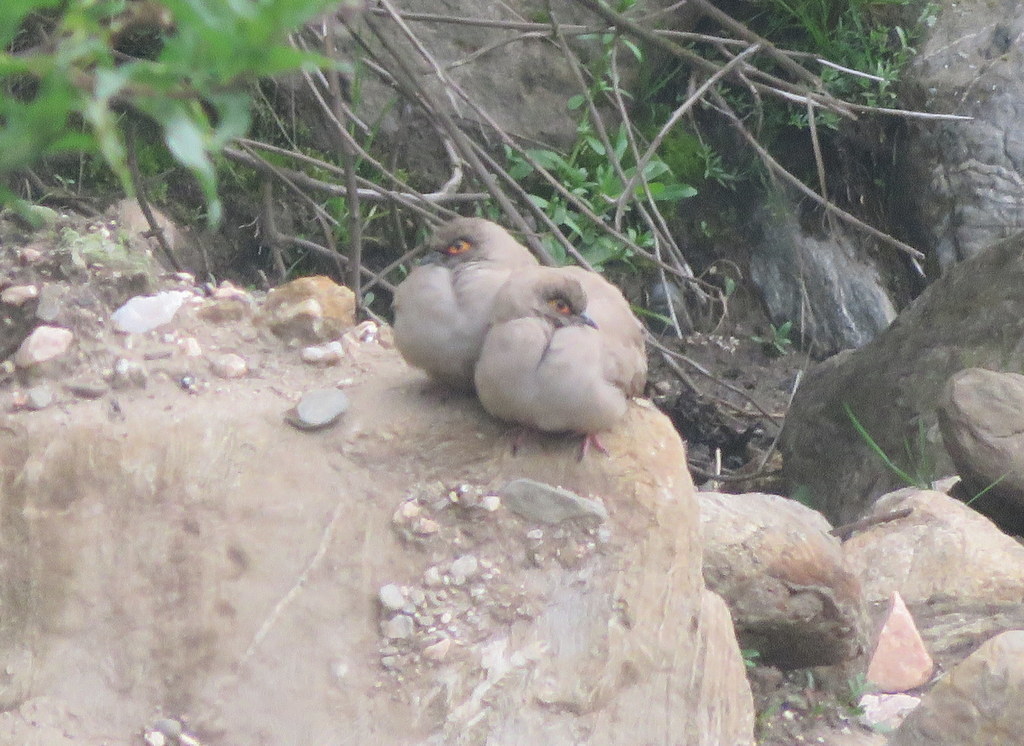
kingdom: Animalia
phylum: Chordata
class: Aves
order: Columbiformes
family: Columbidae
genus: Metriopelia
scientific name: Metriopelia morenoi
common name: Moreno's ground dove
